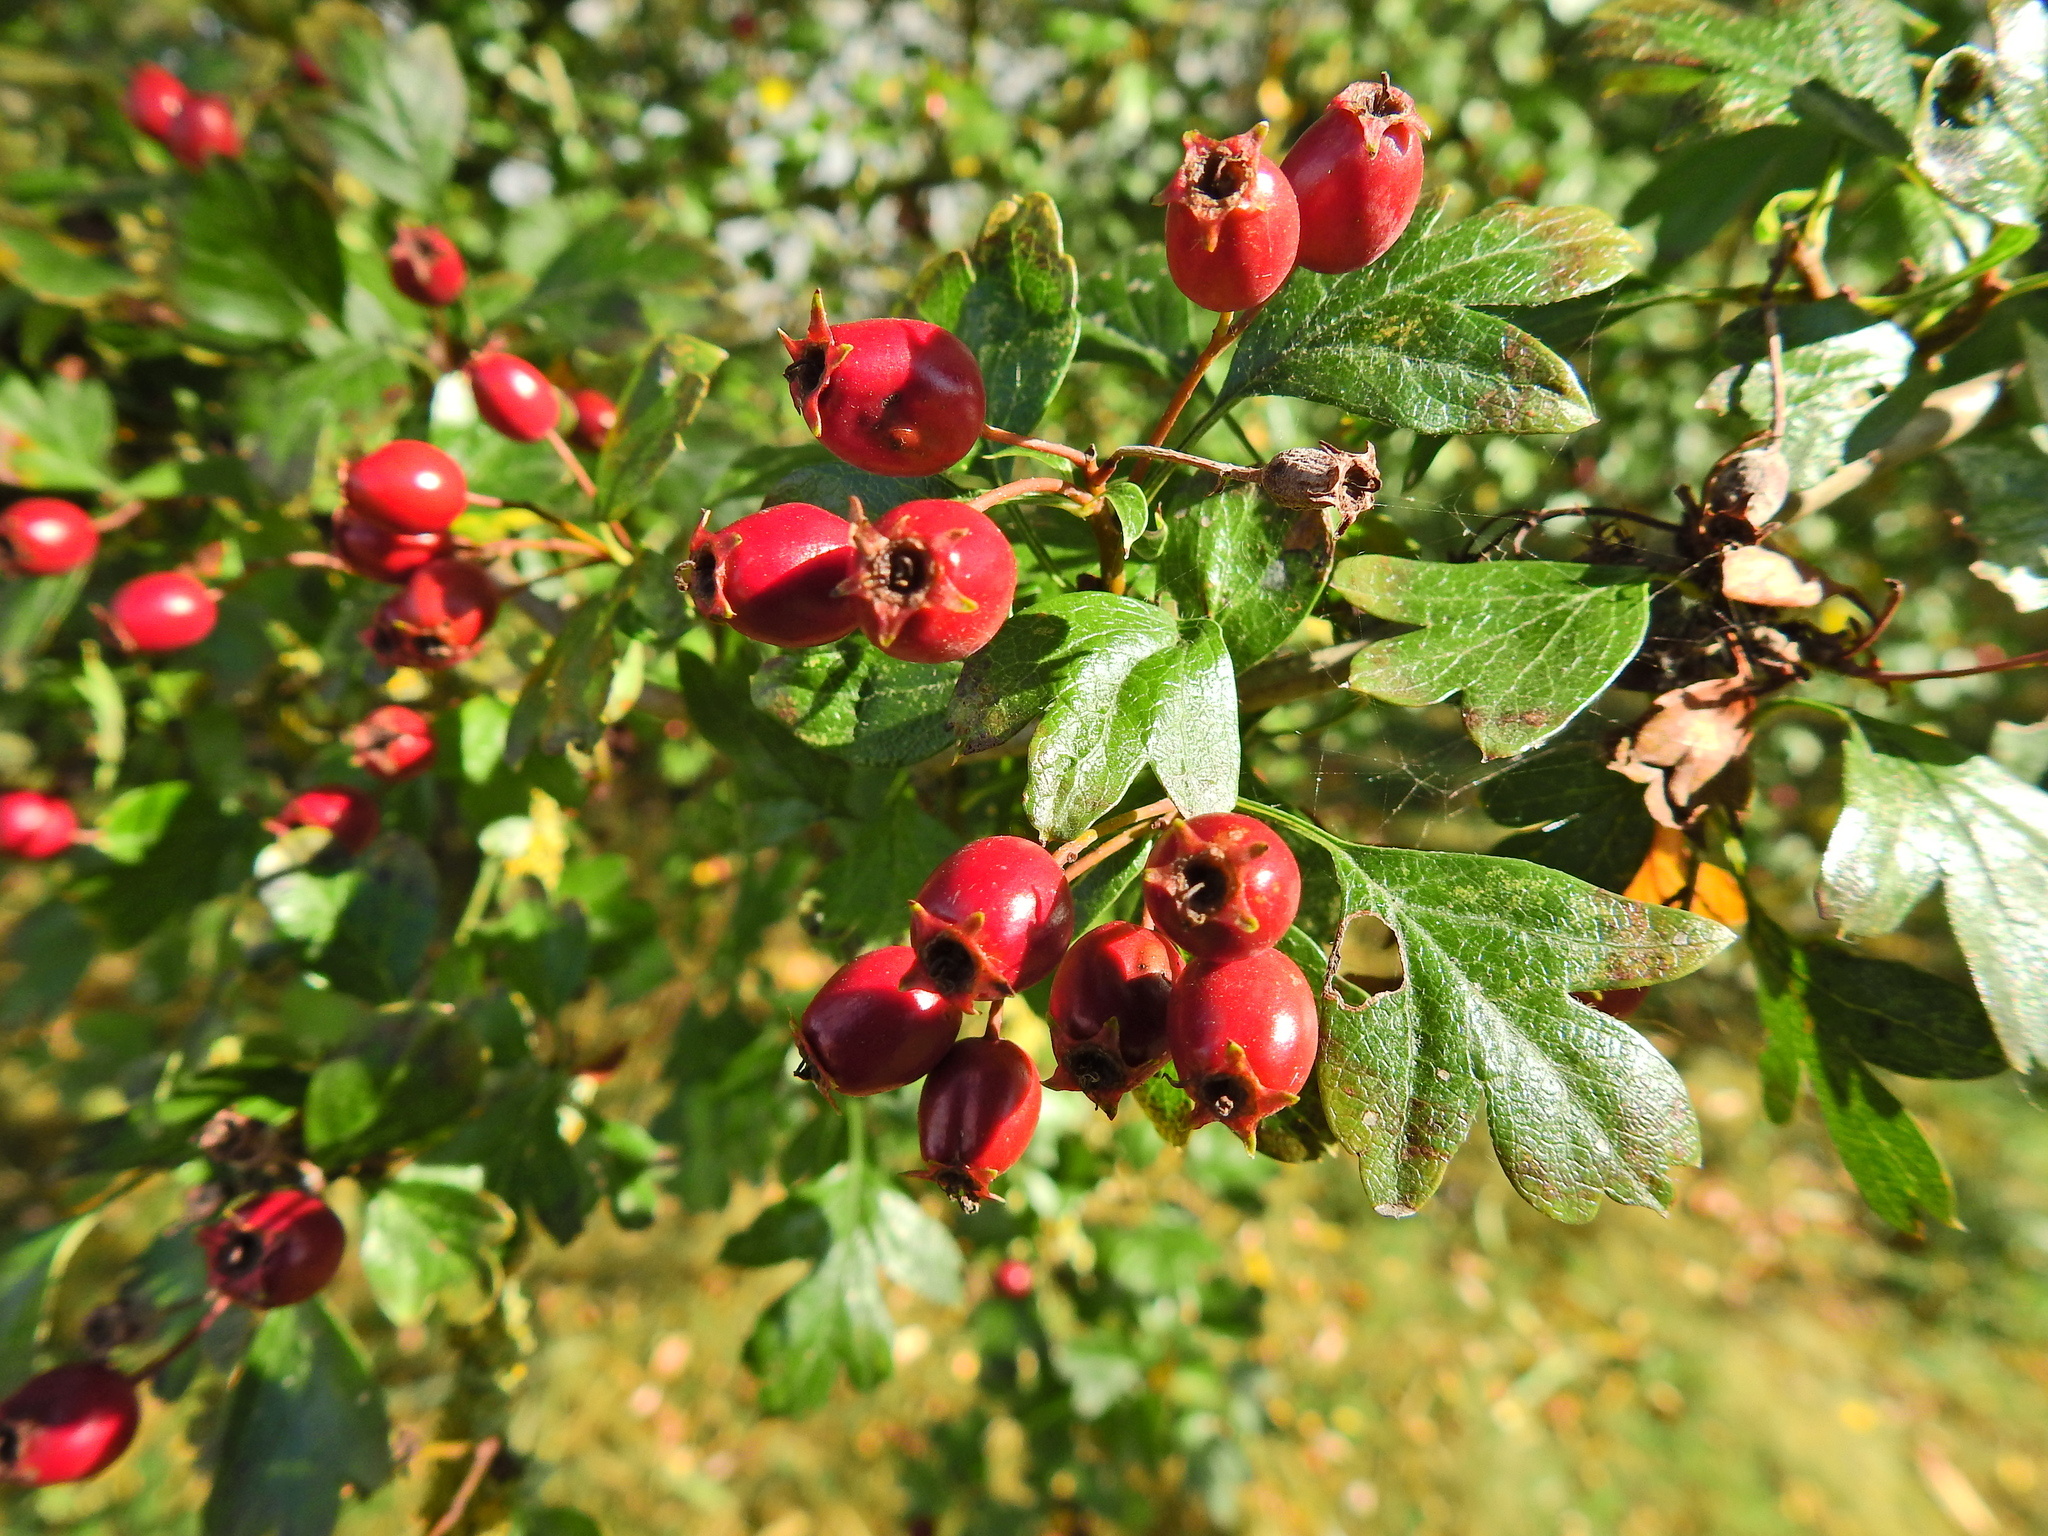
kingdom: Plantae
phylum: Tracheophyta
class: Magnoliopsida
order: Rosales
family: Rosaceae
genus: Crataegus
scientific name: Crataegus monogyna
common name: Hawthorn
